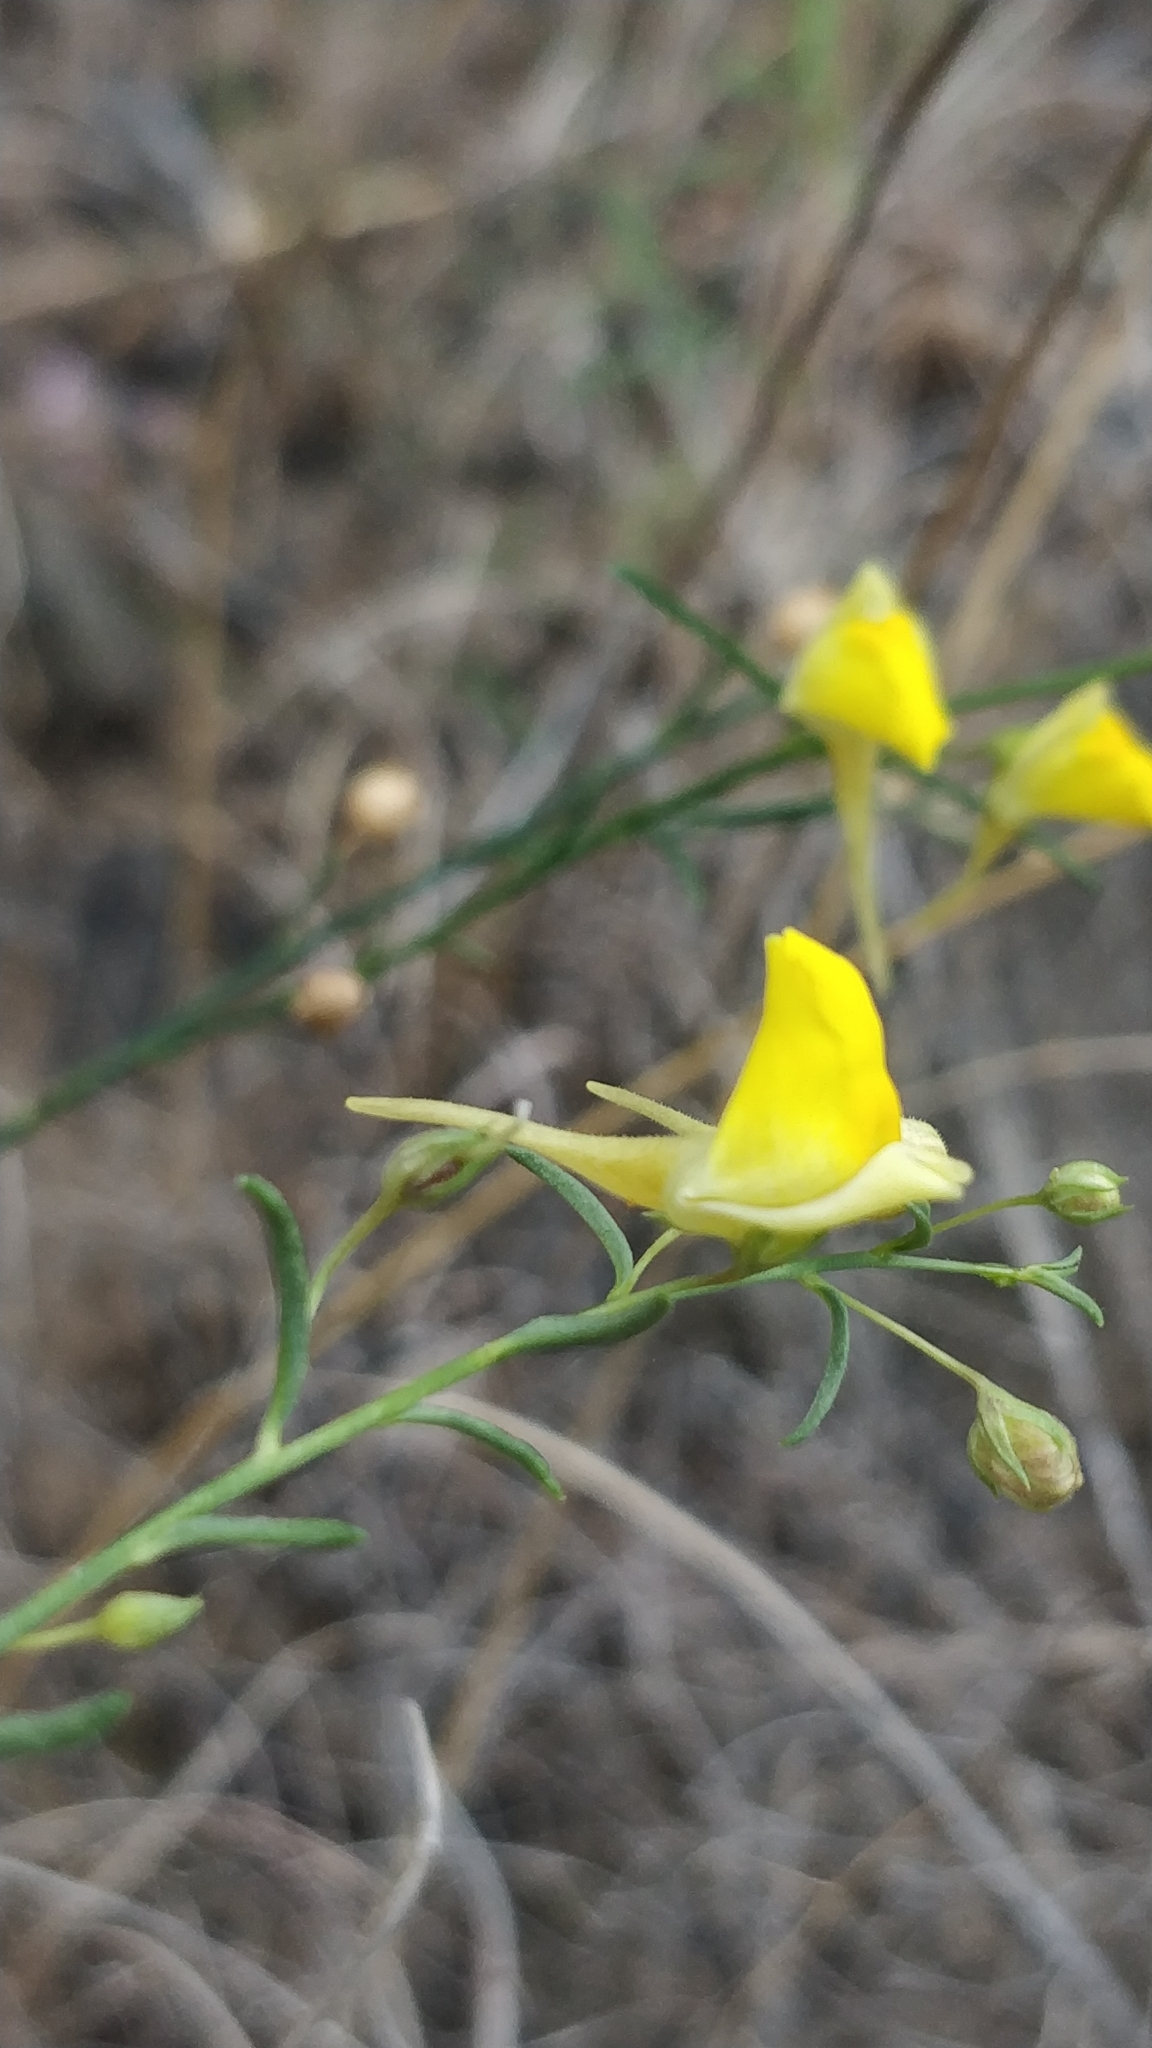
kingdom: Plantae
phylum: Tracheophyta
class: Magnoliopsida
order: Lamiales
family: Plantaginaceae
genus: Nanorrhinum
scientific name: Nanorrhinum scoparium
